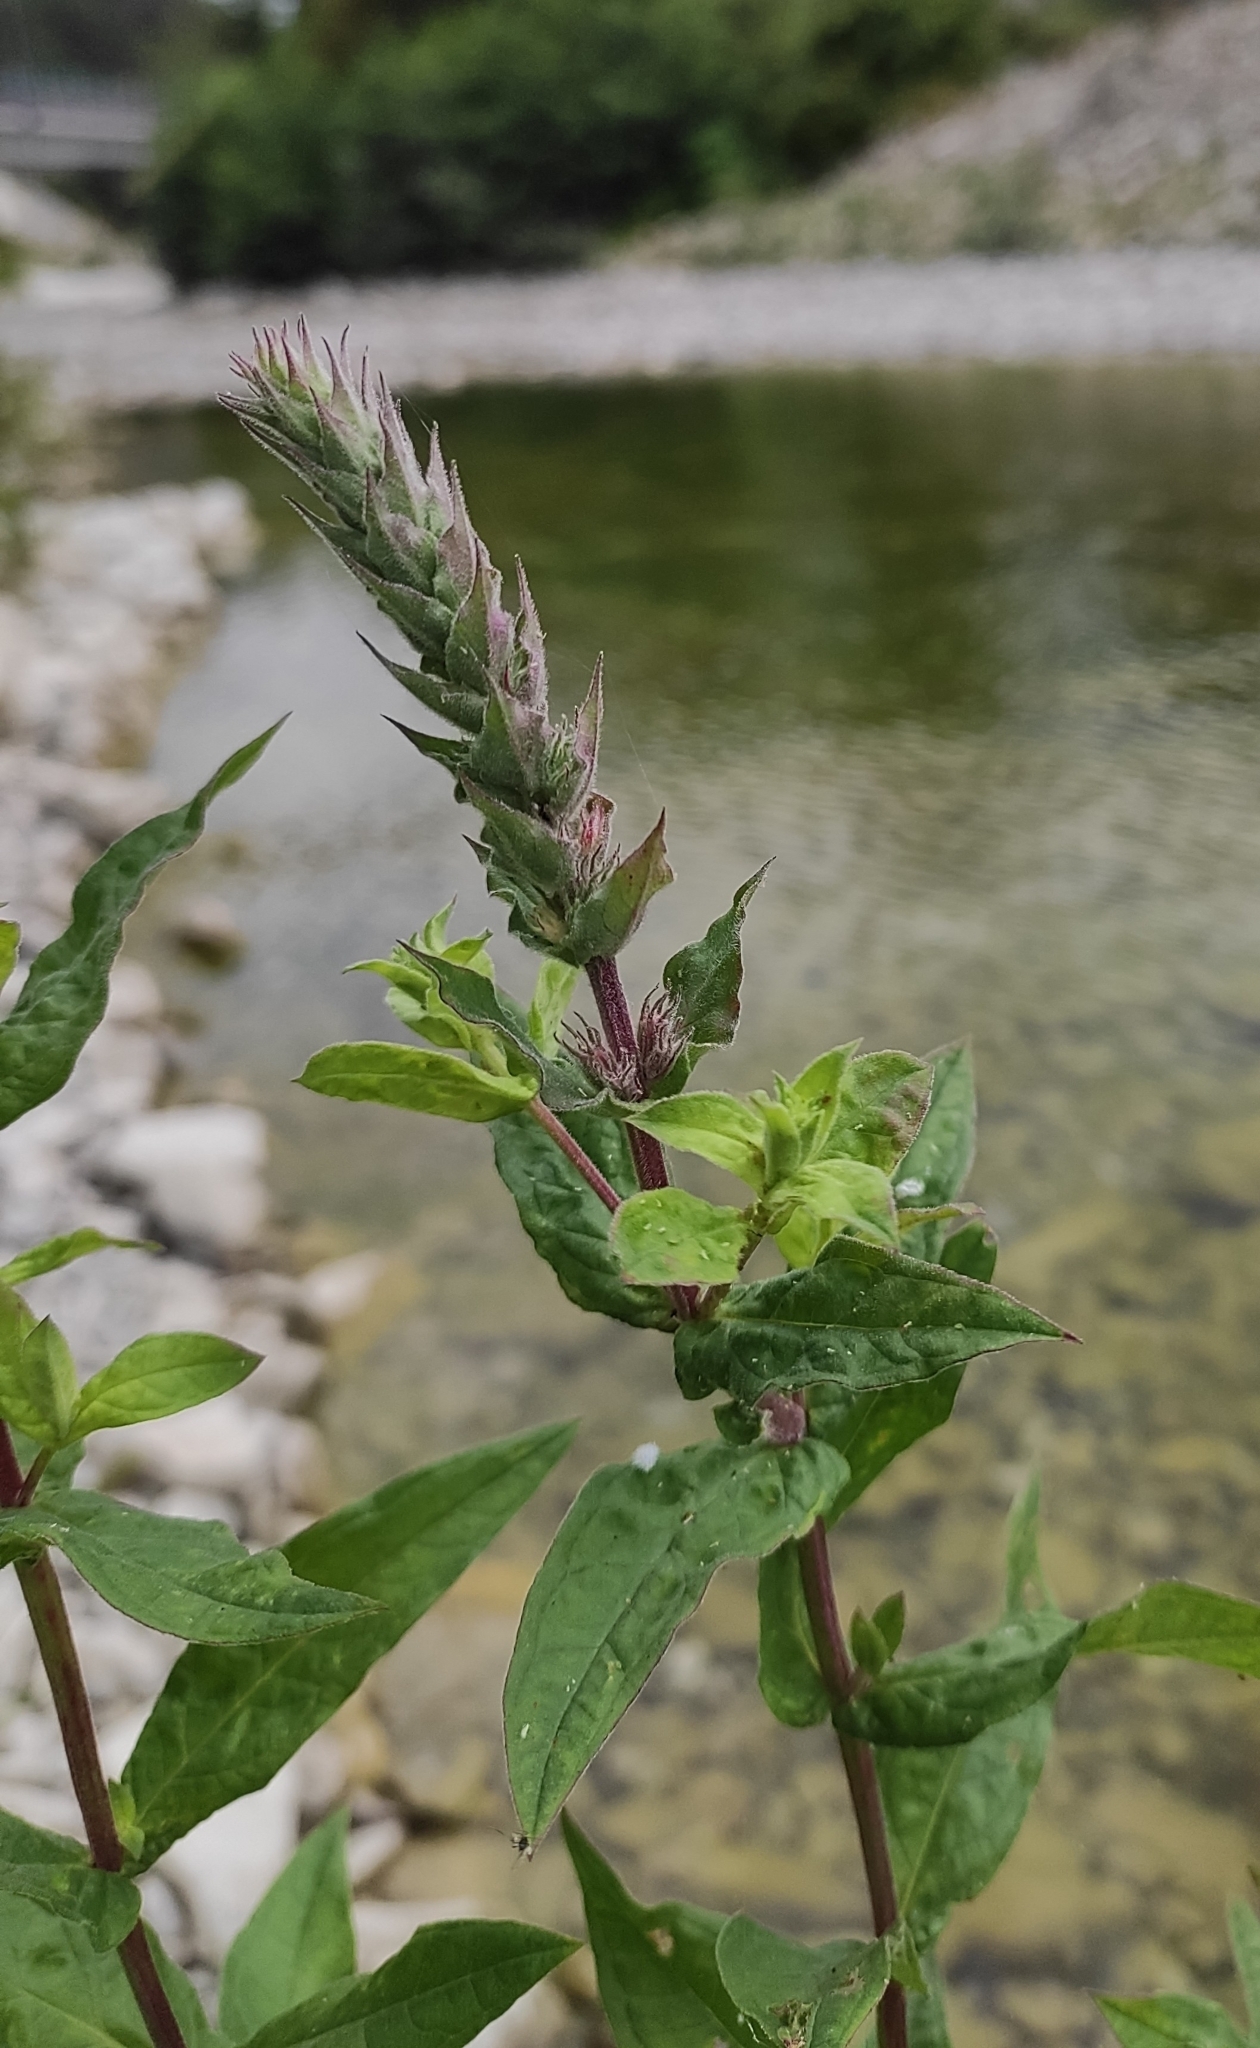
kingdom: Plantae
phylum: Tracheophyta
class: Magnoliopsida
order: Myrtales
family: Lythraceae
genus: Lythrum
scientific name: Lythrum salicaria
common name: Purple loosestrife
